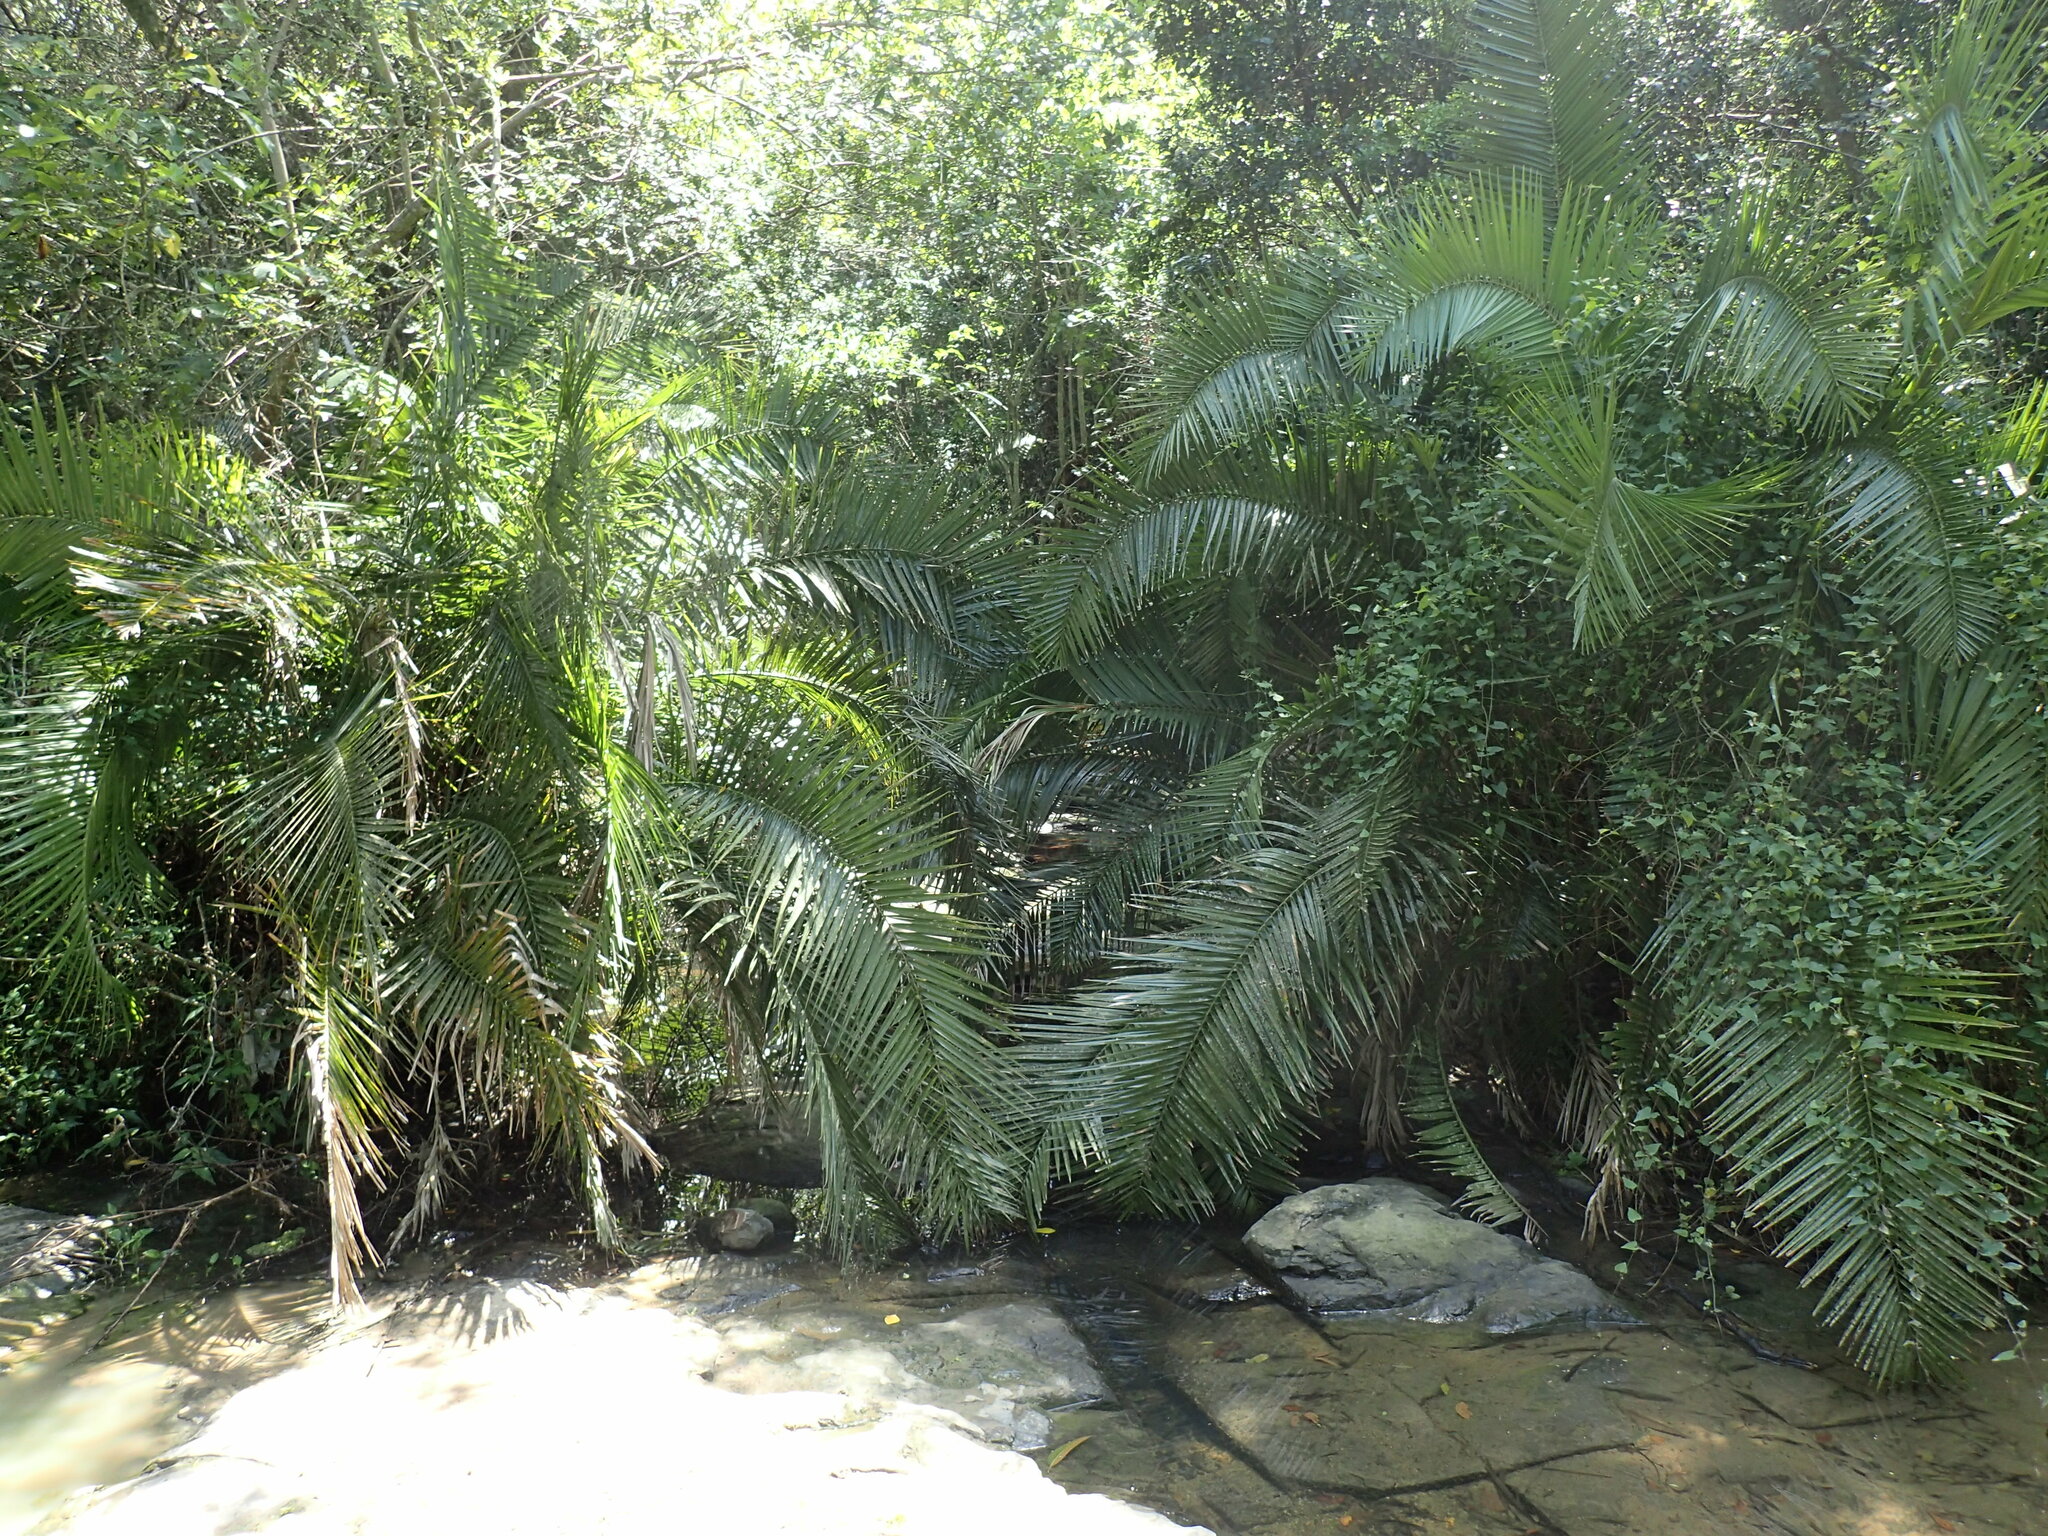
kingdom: Plantae
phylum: Tracheophyta
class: Liliopsida
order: Arecales
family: Arecaceae
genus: Phoenix
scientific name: Phoenix reclinata
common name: Senegal date palm
